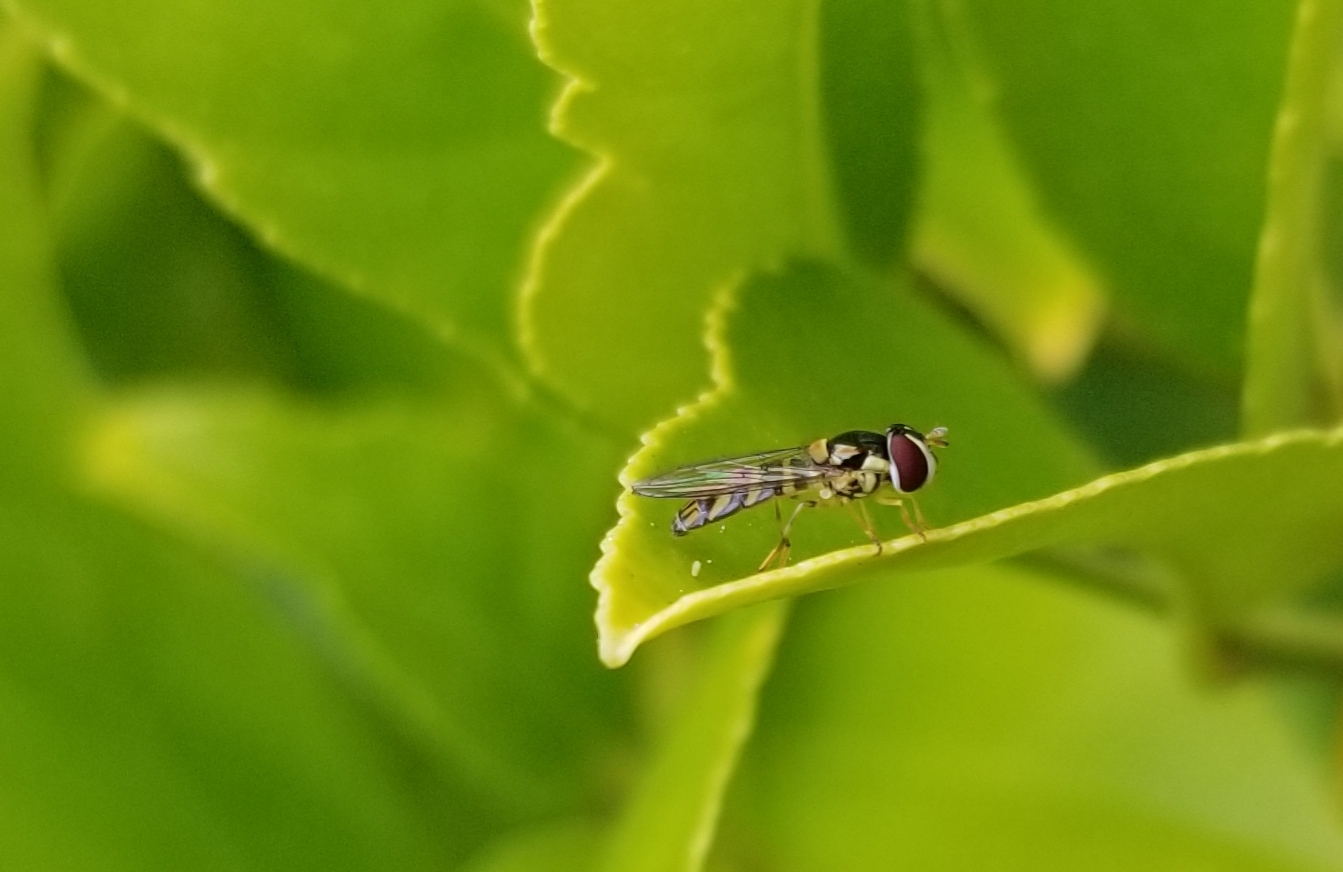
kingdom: Animalia
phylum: Arthropoda
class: Insecta
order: Diptera
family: Syrphidae
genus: Allograpta
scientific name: Allograpta obliqua
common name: Common oblique syrphid
